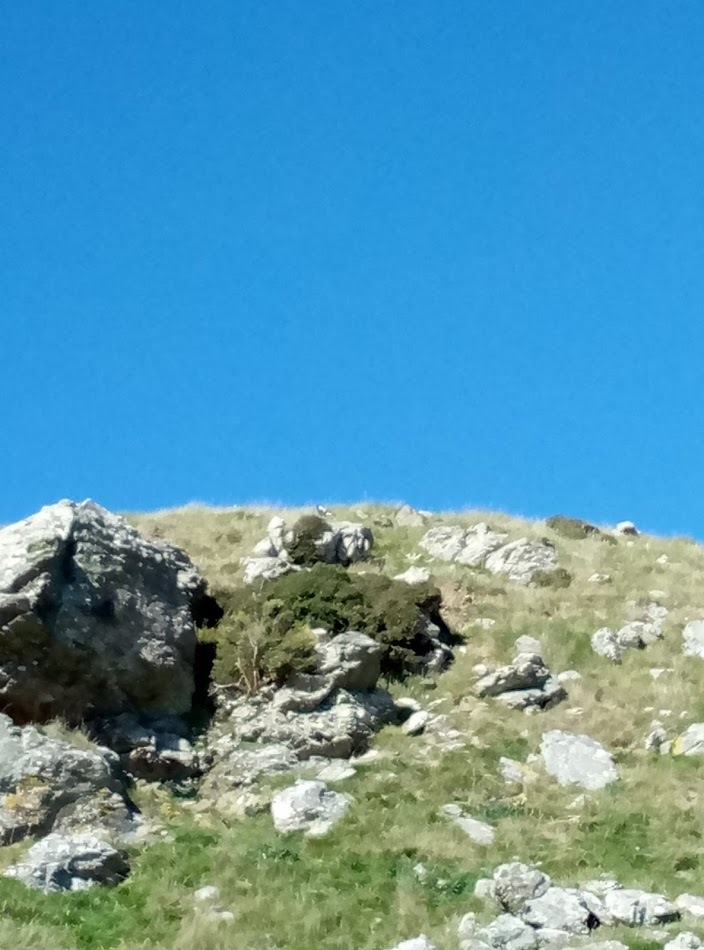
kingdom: Animalia
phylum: Chordata
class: Aves
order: Passeriformes
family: Cracticidae
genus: Gymnorhina
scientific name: Gymnorhina tibicen
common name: Australian magpie
